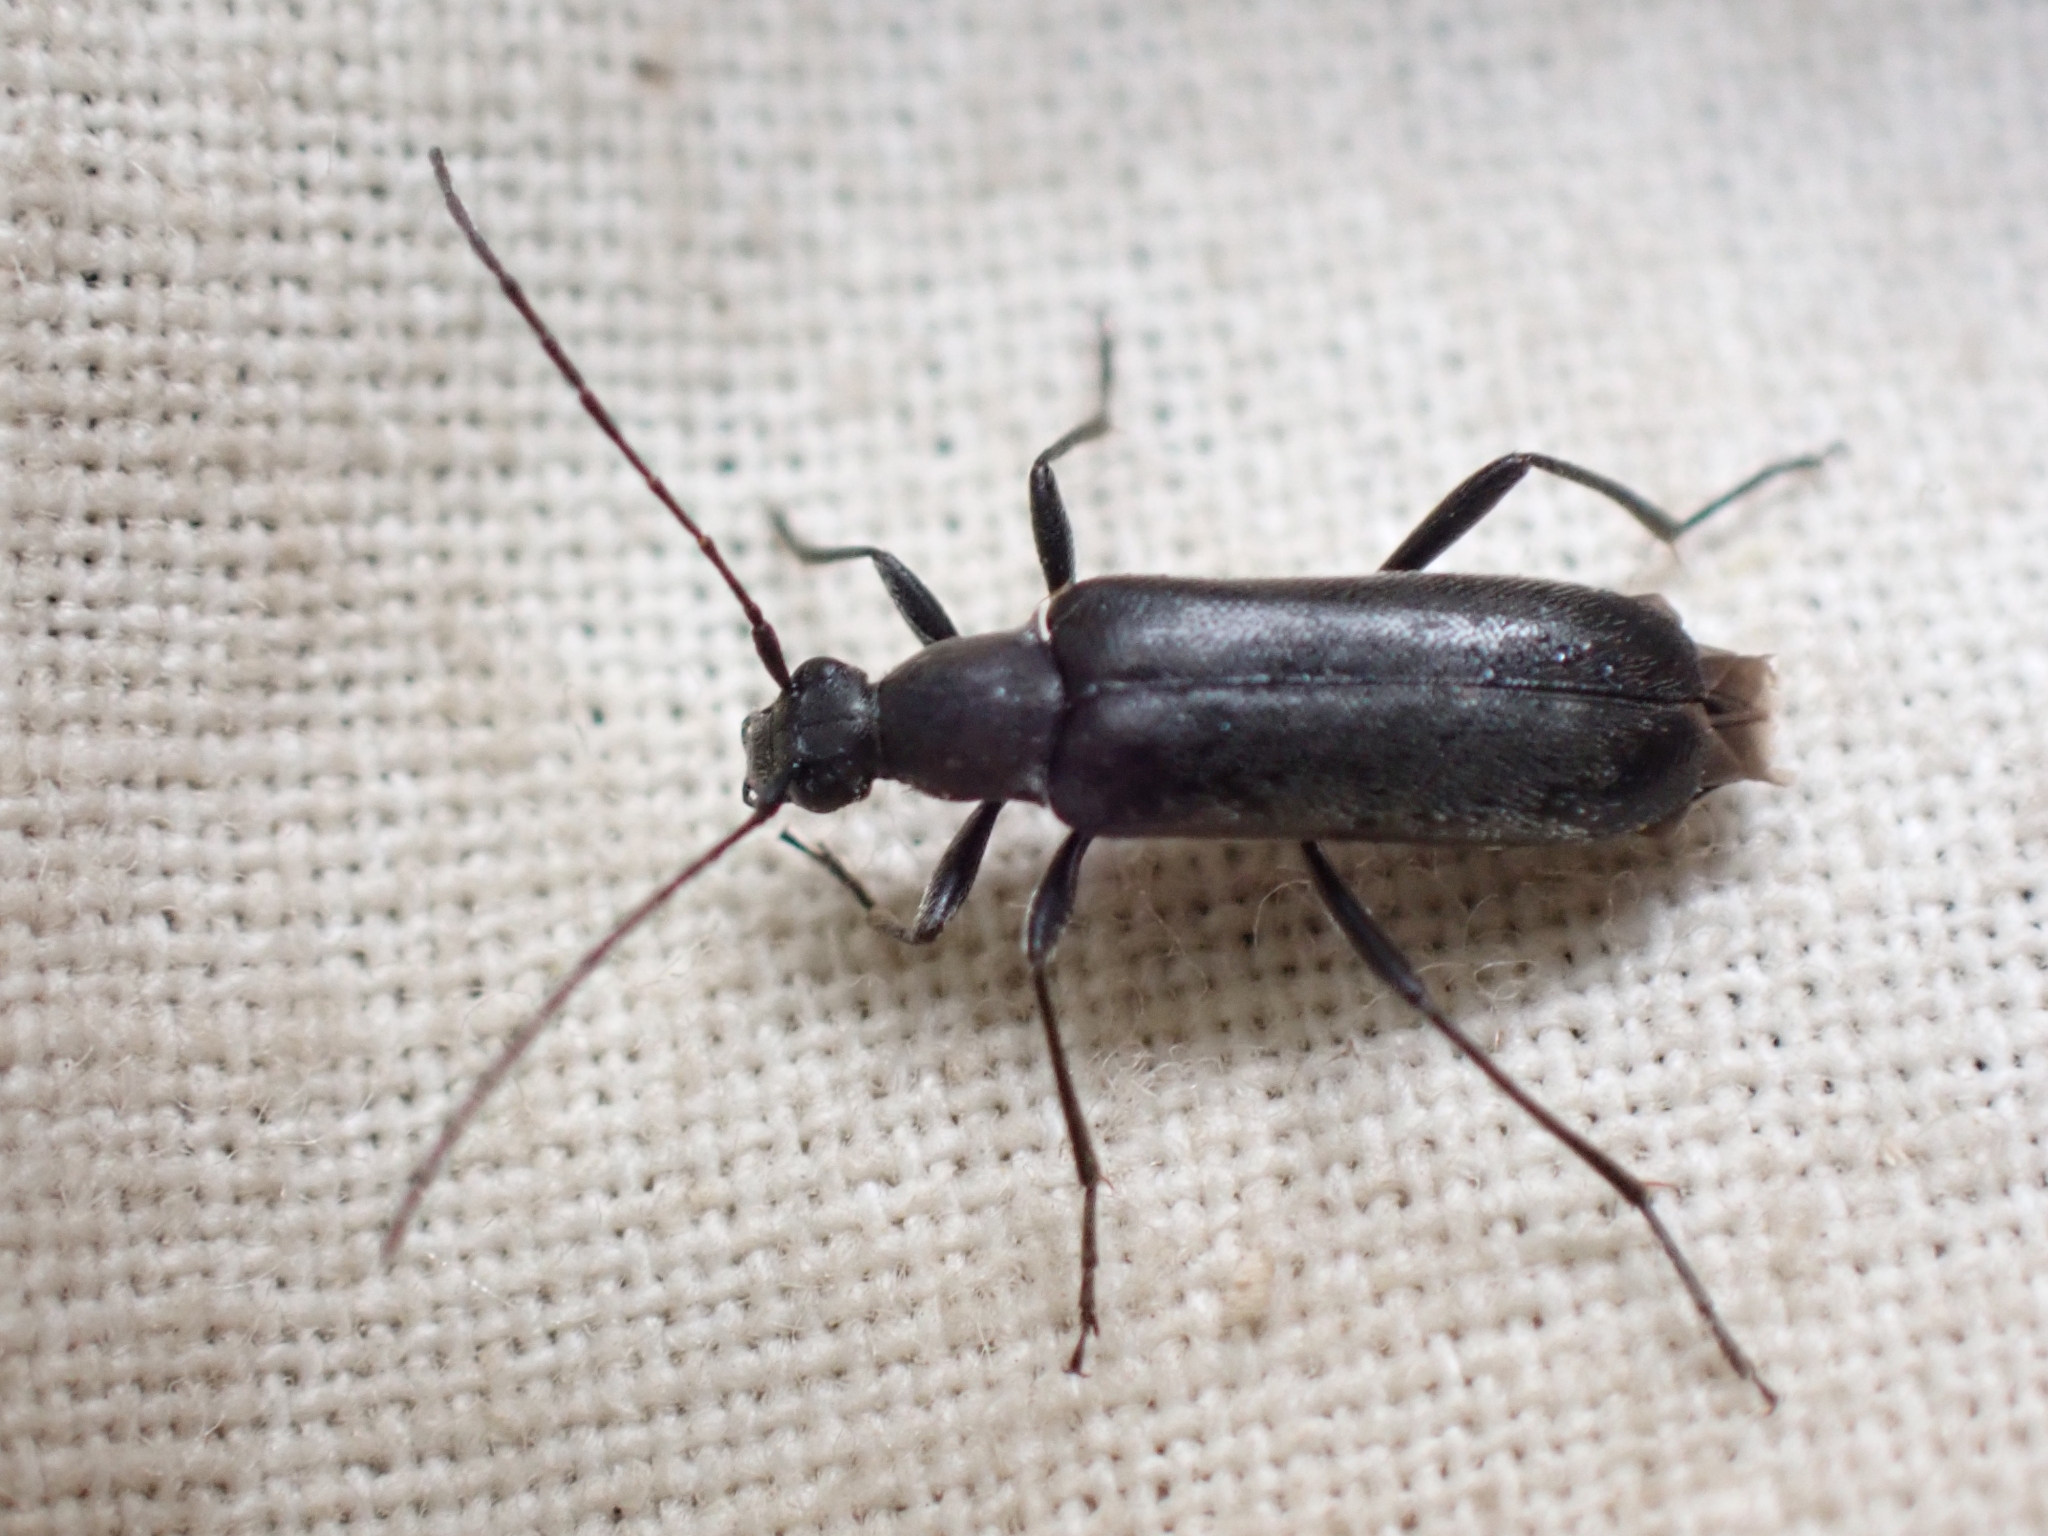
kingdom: Animalia
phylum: Arthropoda
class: Insecta
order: Coleoptera
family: Cerambycidae
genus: Grammoptera
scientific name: Grammoptera subargentata
